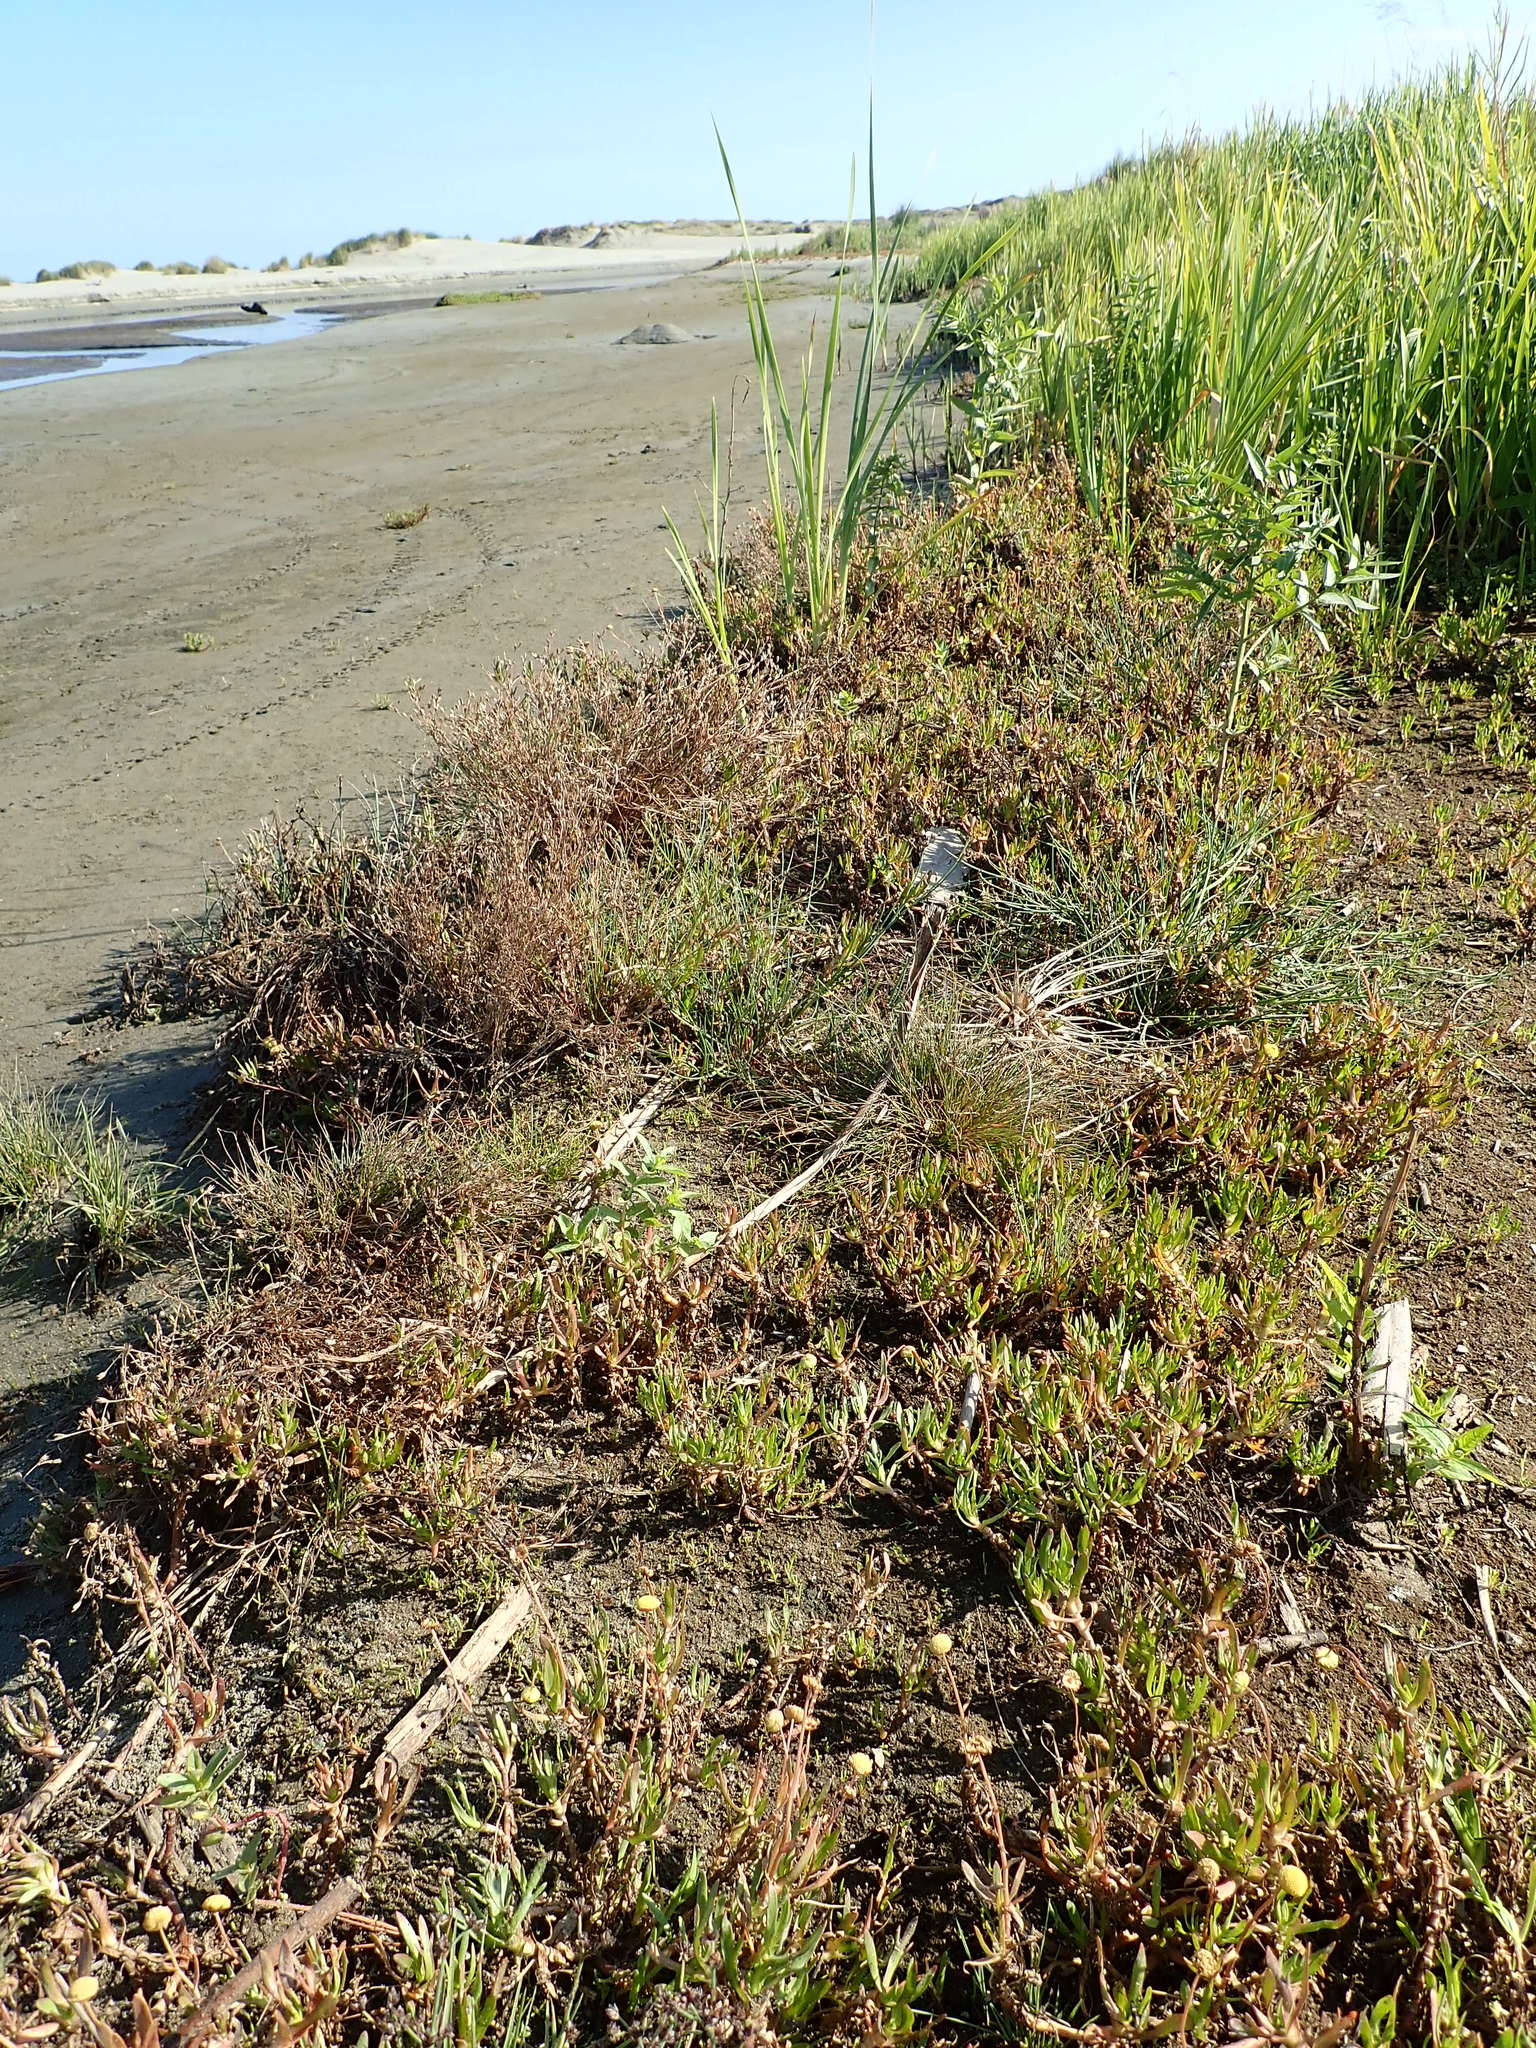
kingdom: Plantae
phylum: Tracheophyta
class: Magnoliopsida
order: Asterales
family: Asteraceae
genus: Cotula
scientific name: Cotula coronopifolia
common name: Buttonweed
